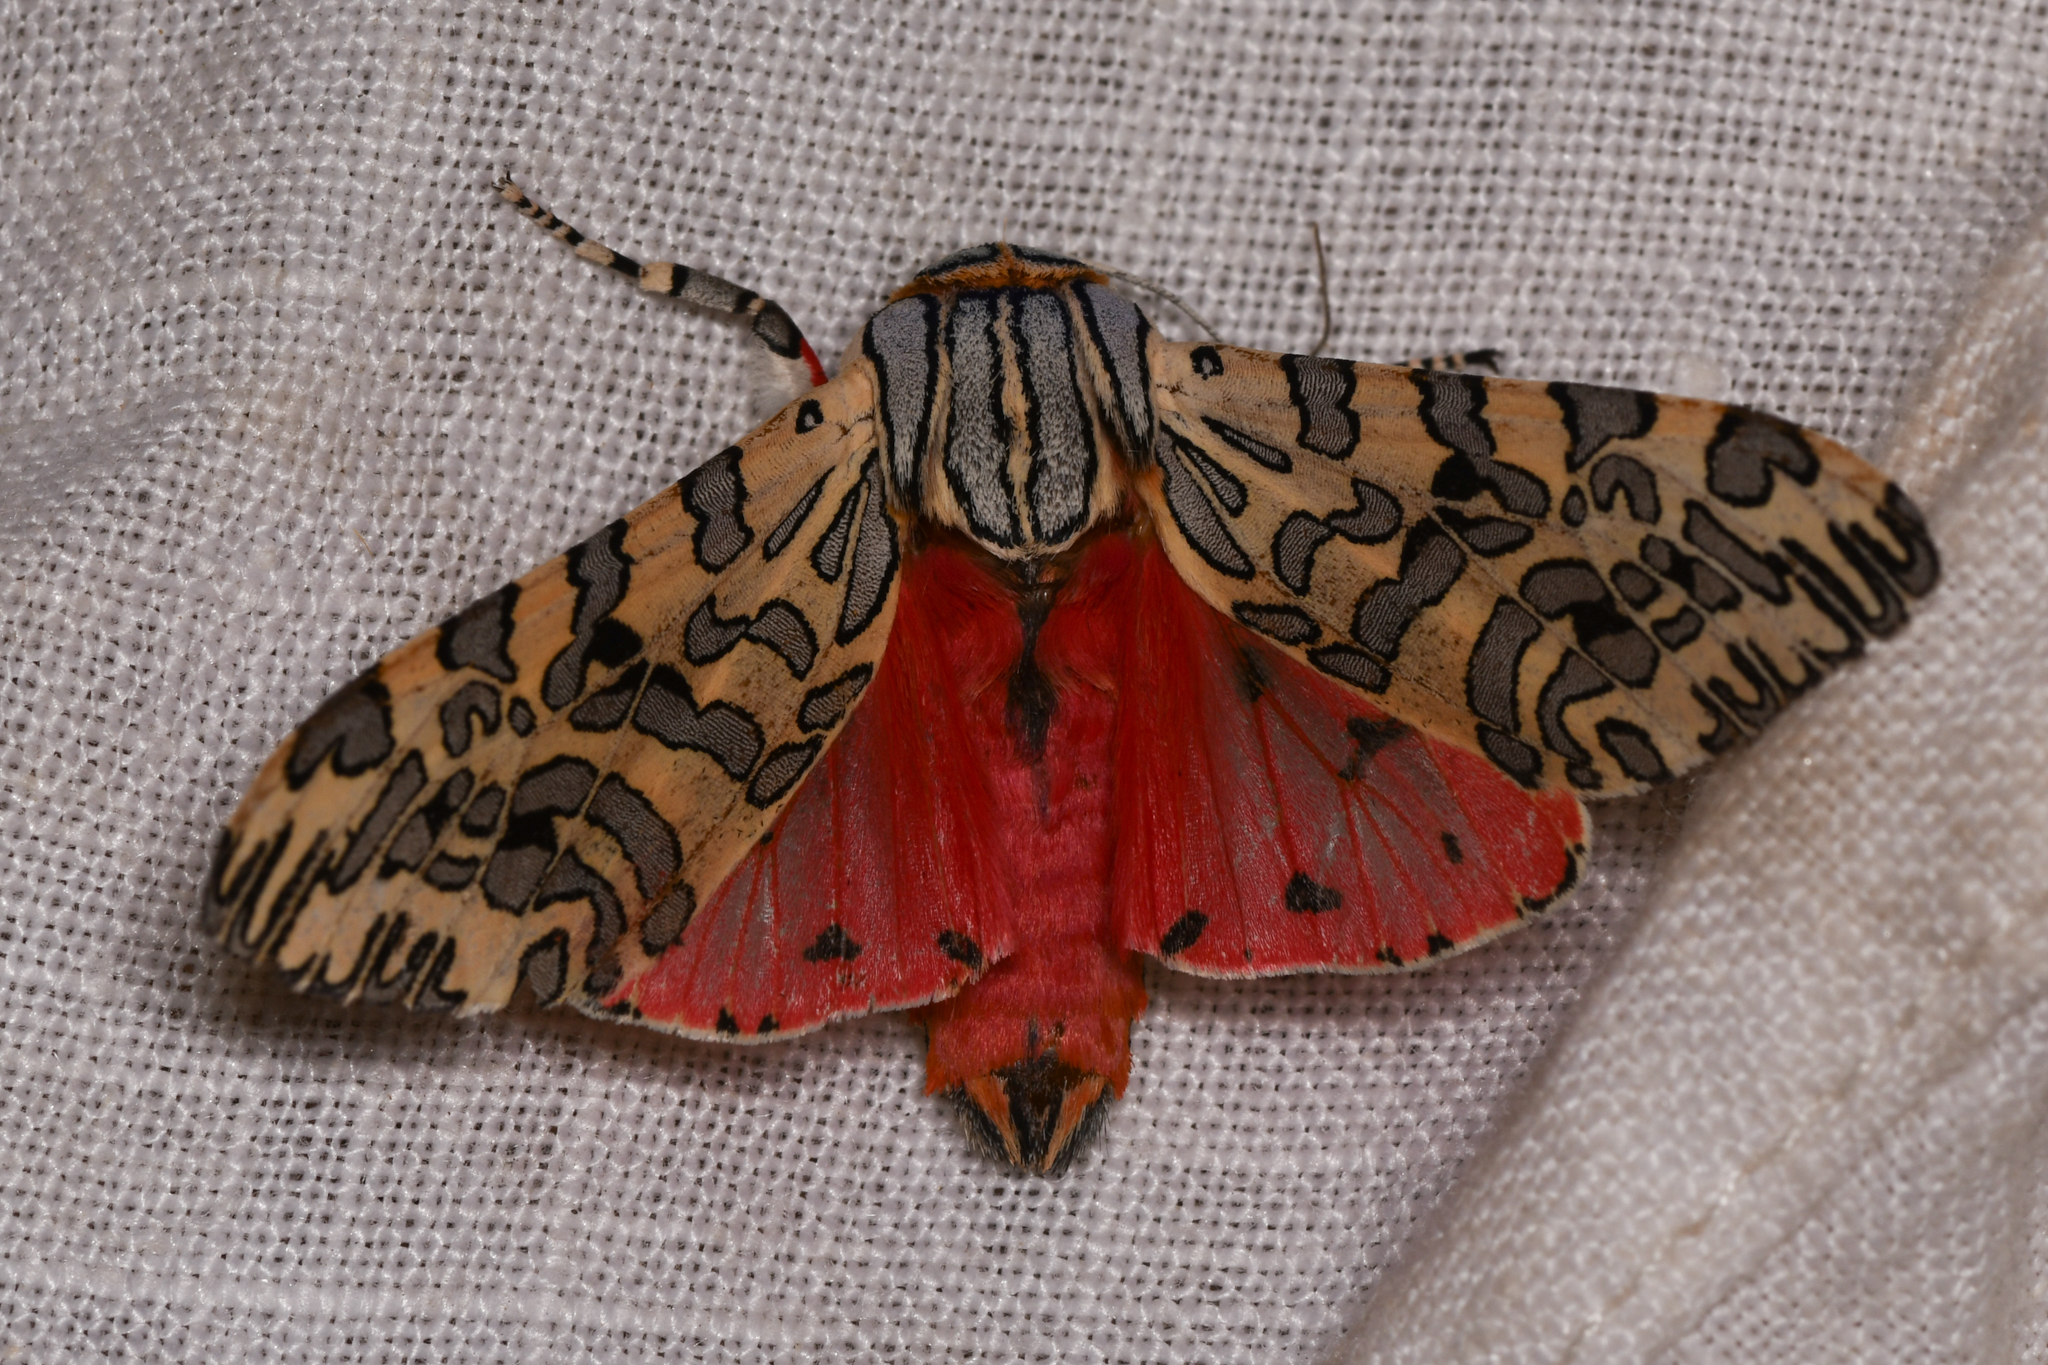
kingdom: Animalia
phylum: Arthropoda
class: Insecta
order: Lepidoptera
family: Erebidae
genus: Arachnis
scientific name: Arachnis
